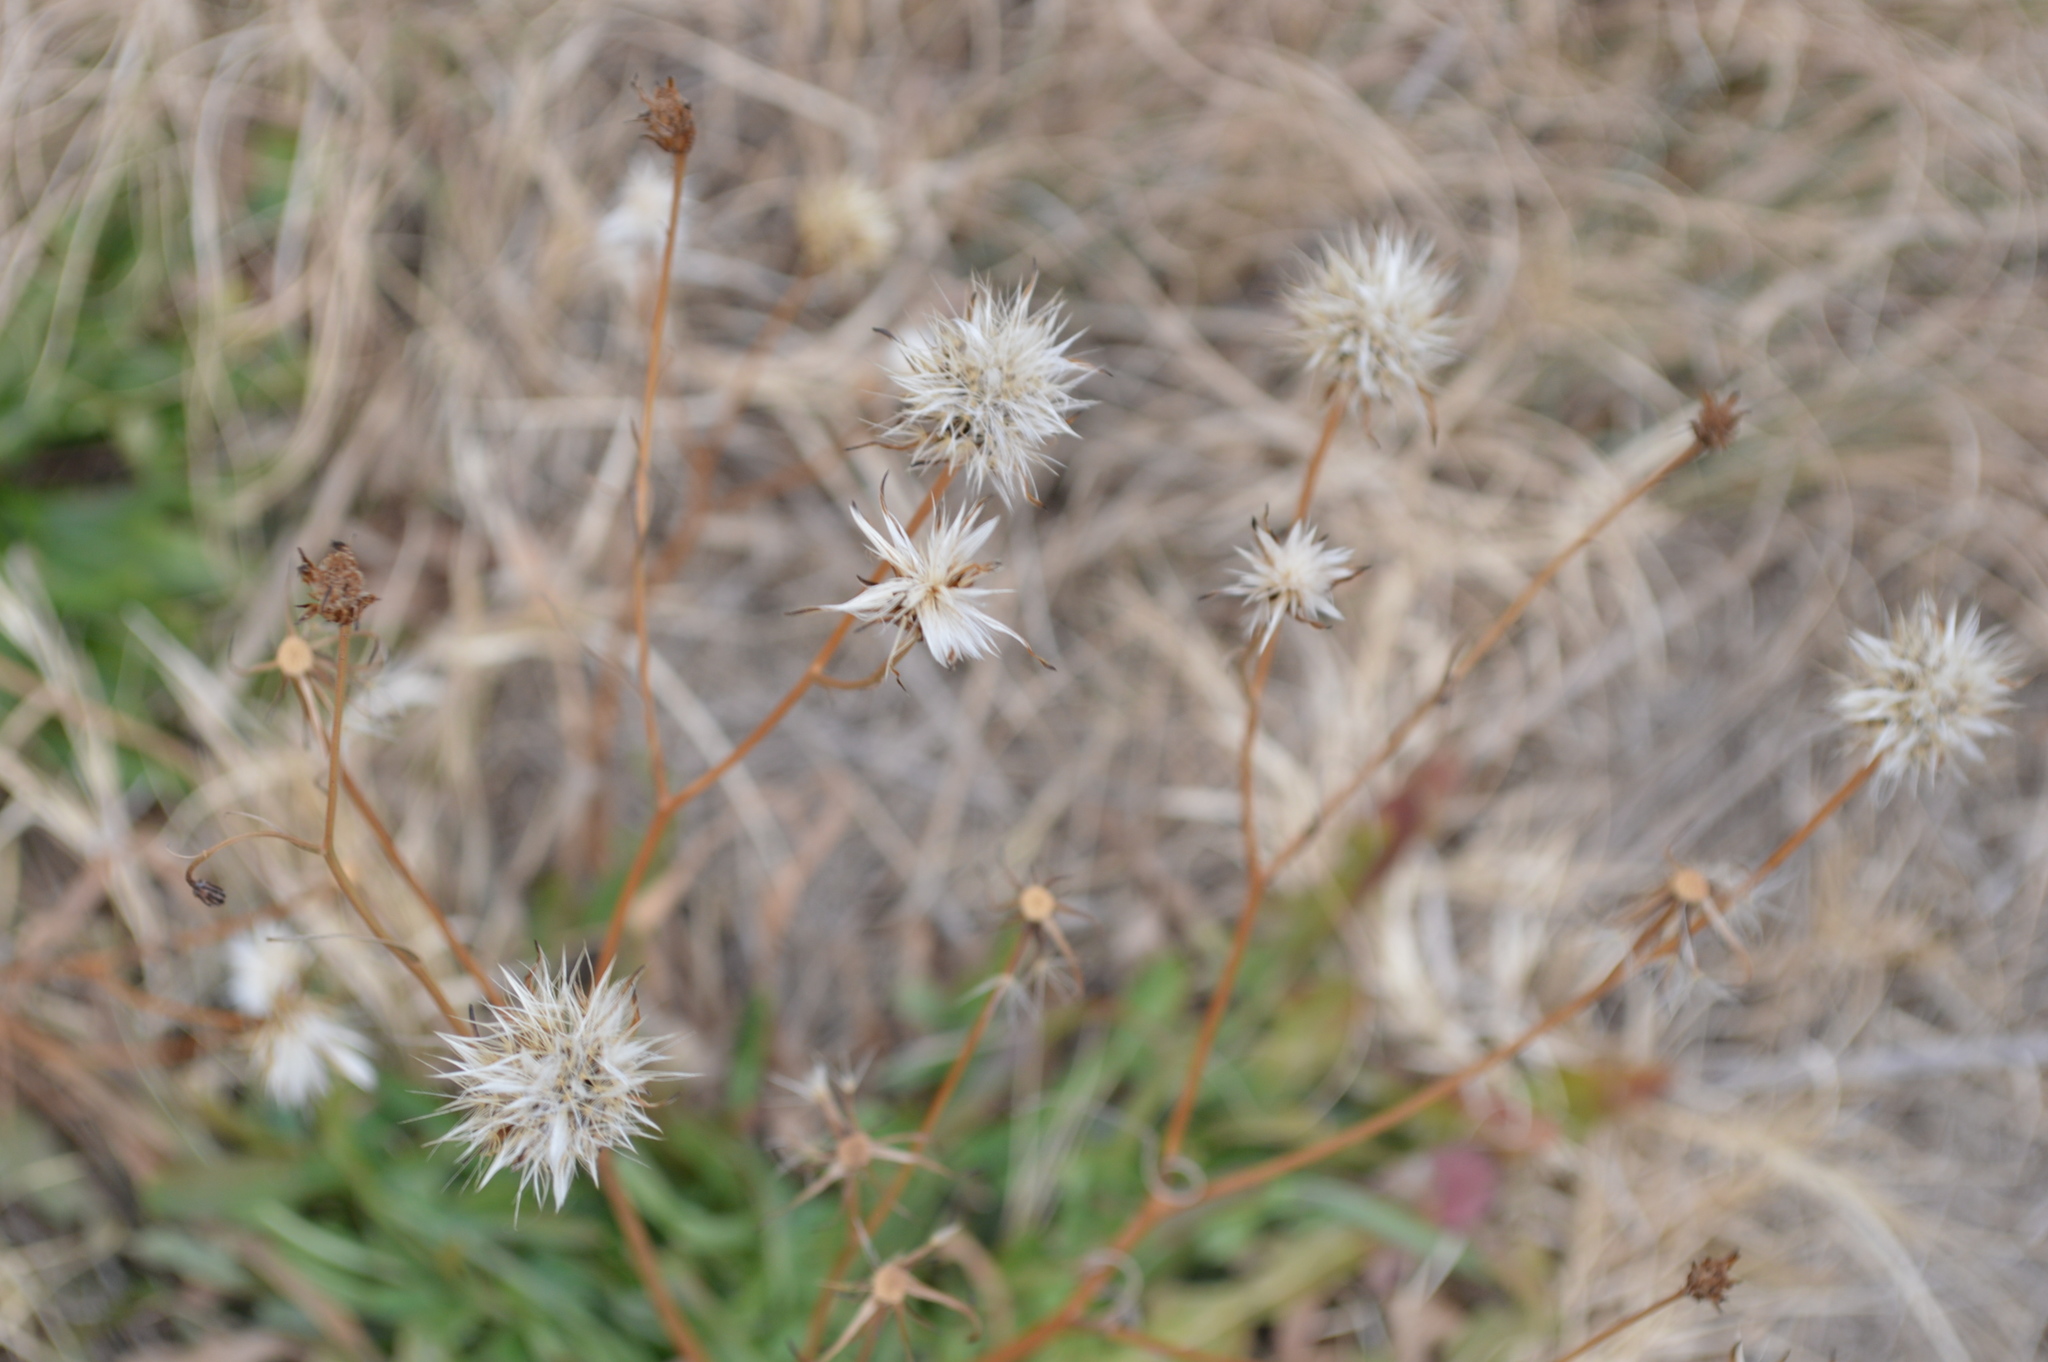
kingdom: Plantae
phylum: Tracheophyta
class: Magnoliopsida
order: Asterales
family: Asteraceae
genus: Hypochaeris
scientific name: Hypochaeris glabra
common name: Smooth catsear
